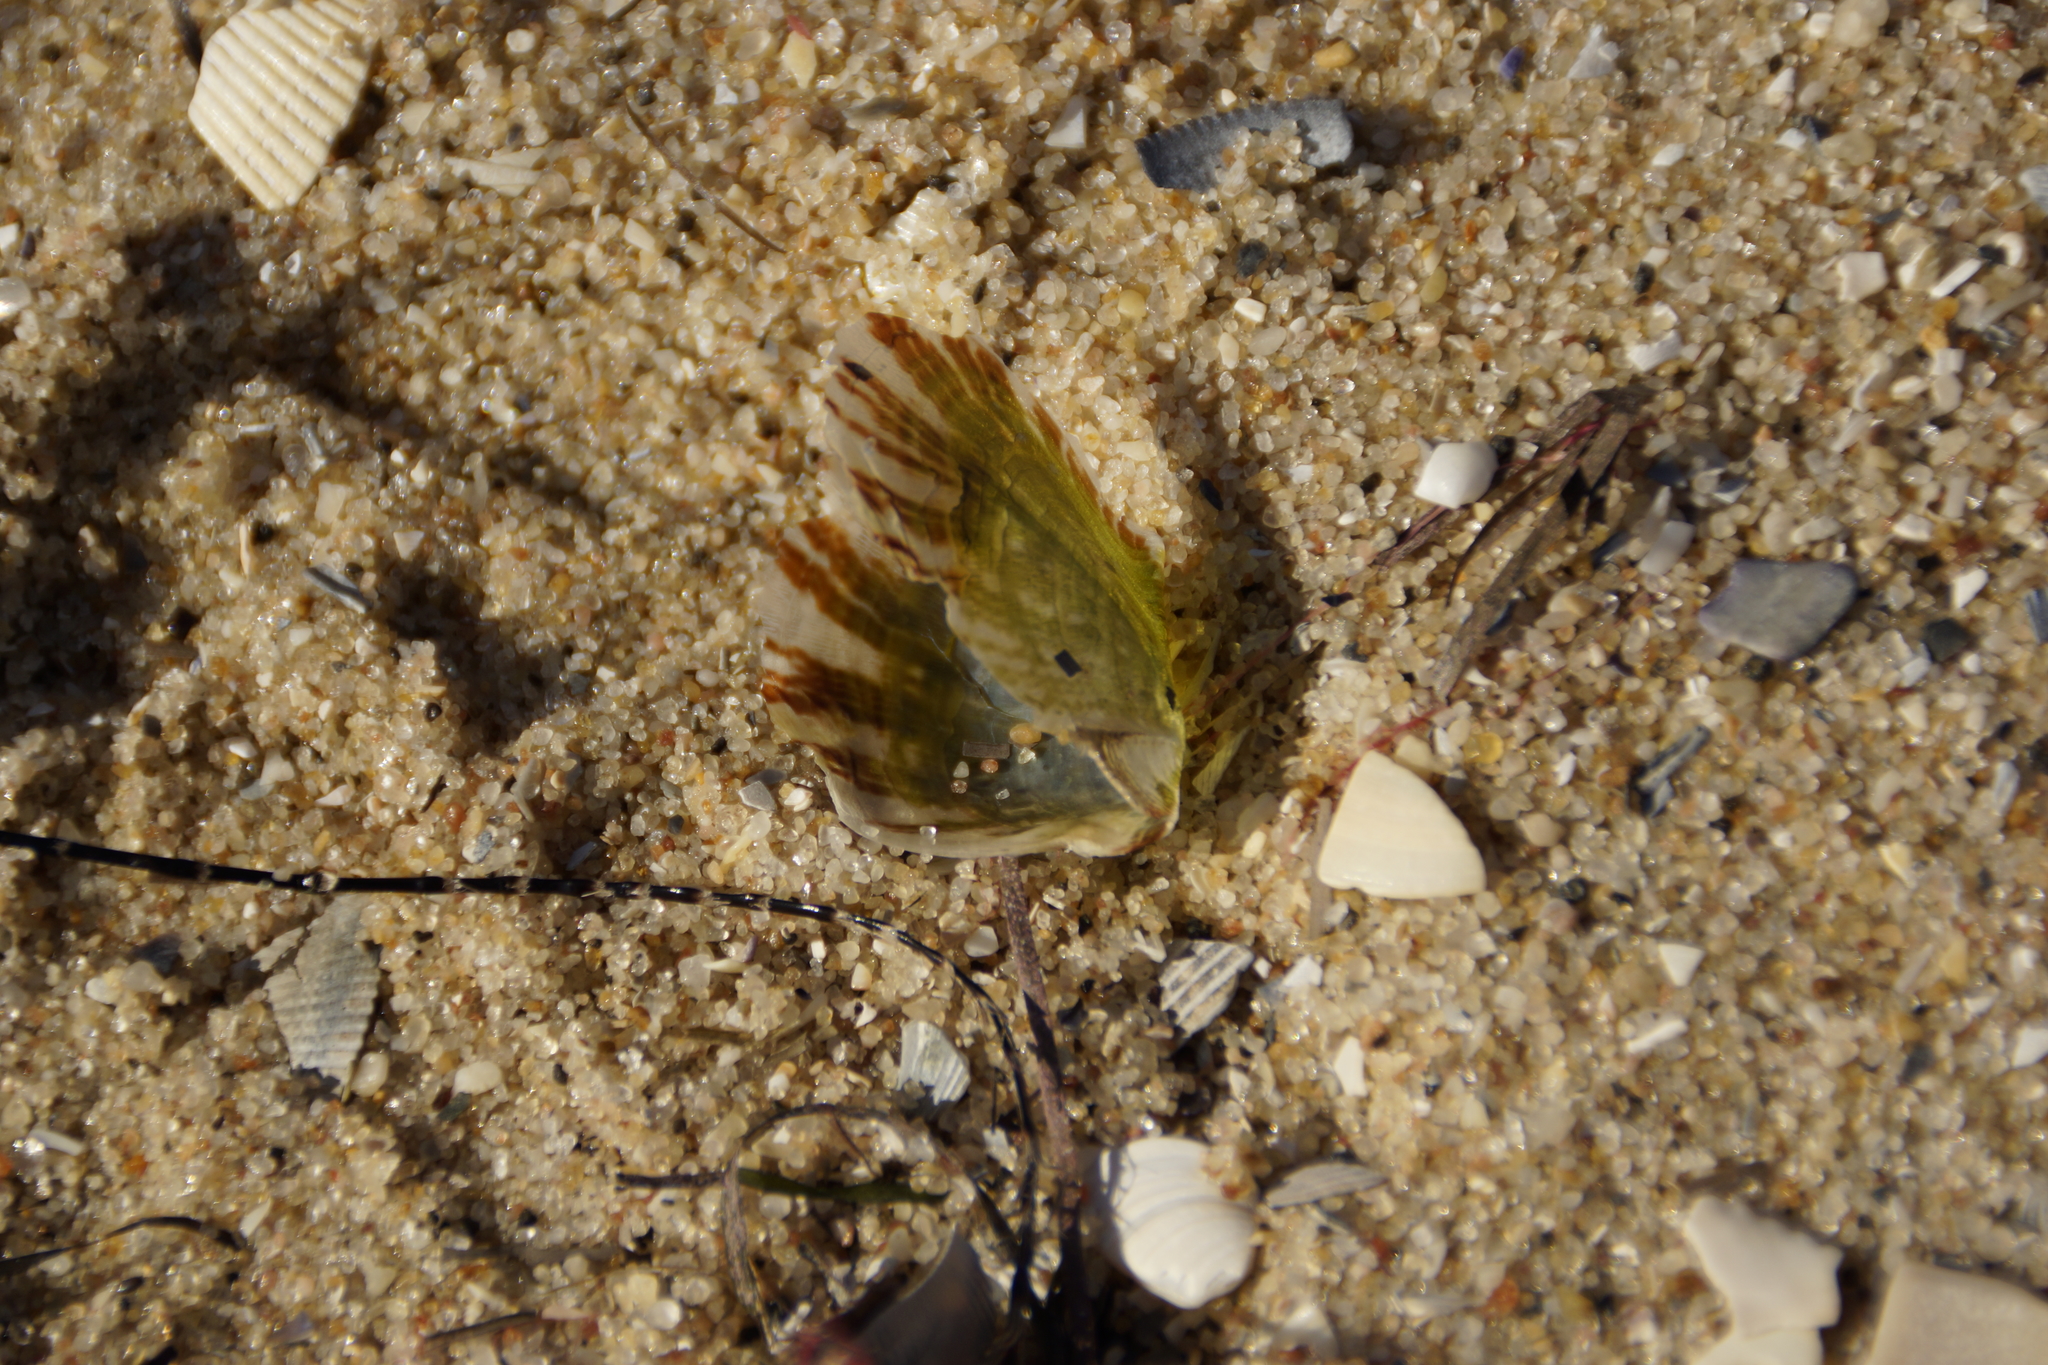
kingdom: Animalia
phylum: Mollusca
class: Bivalvia
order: Ostreida
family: Vulsellidae
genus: Electroma
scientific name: Electroma papilionacea
